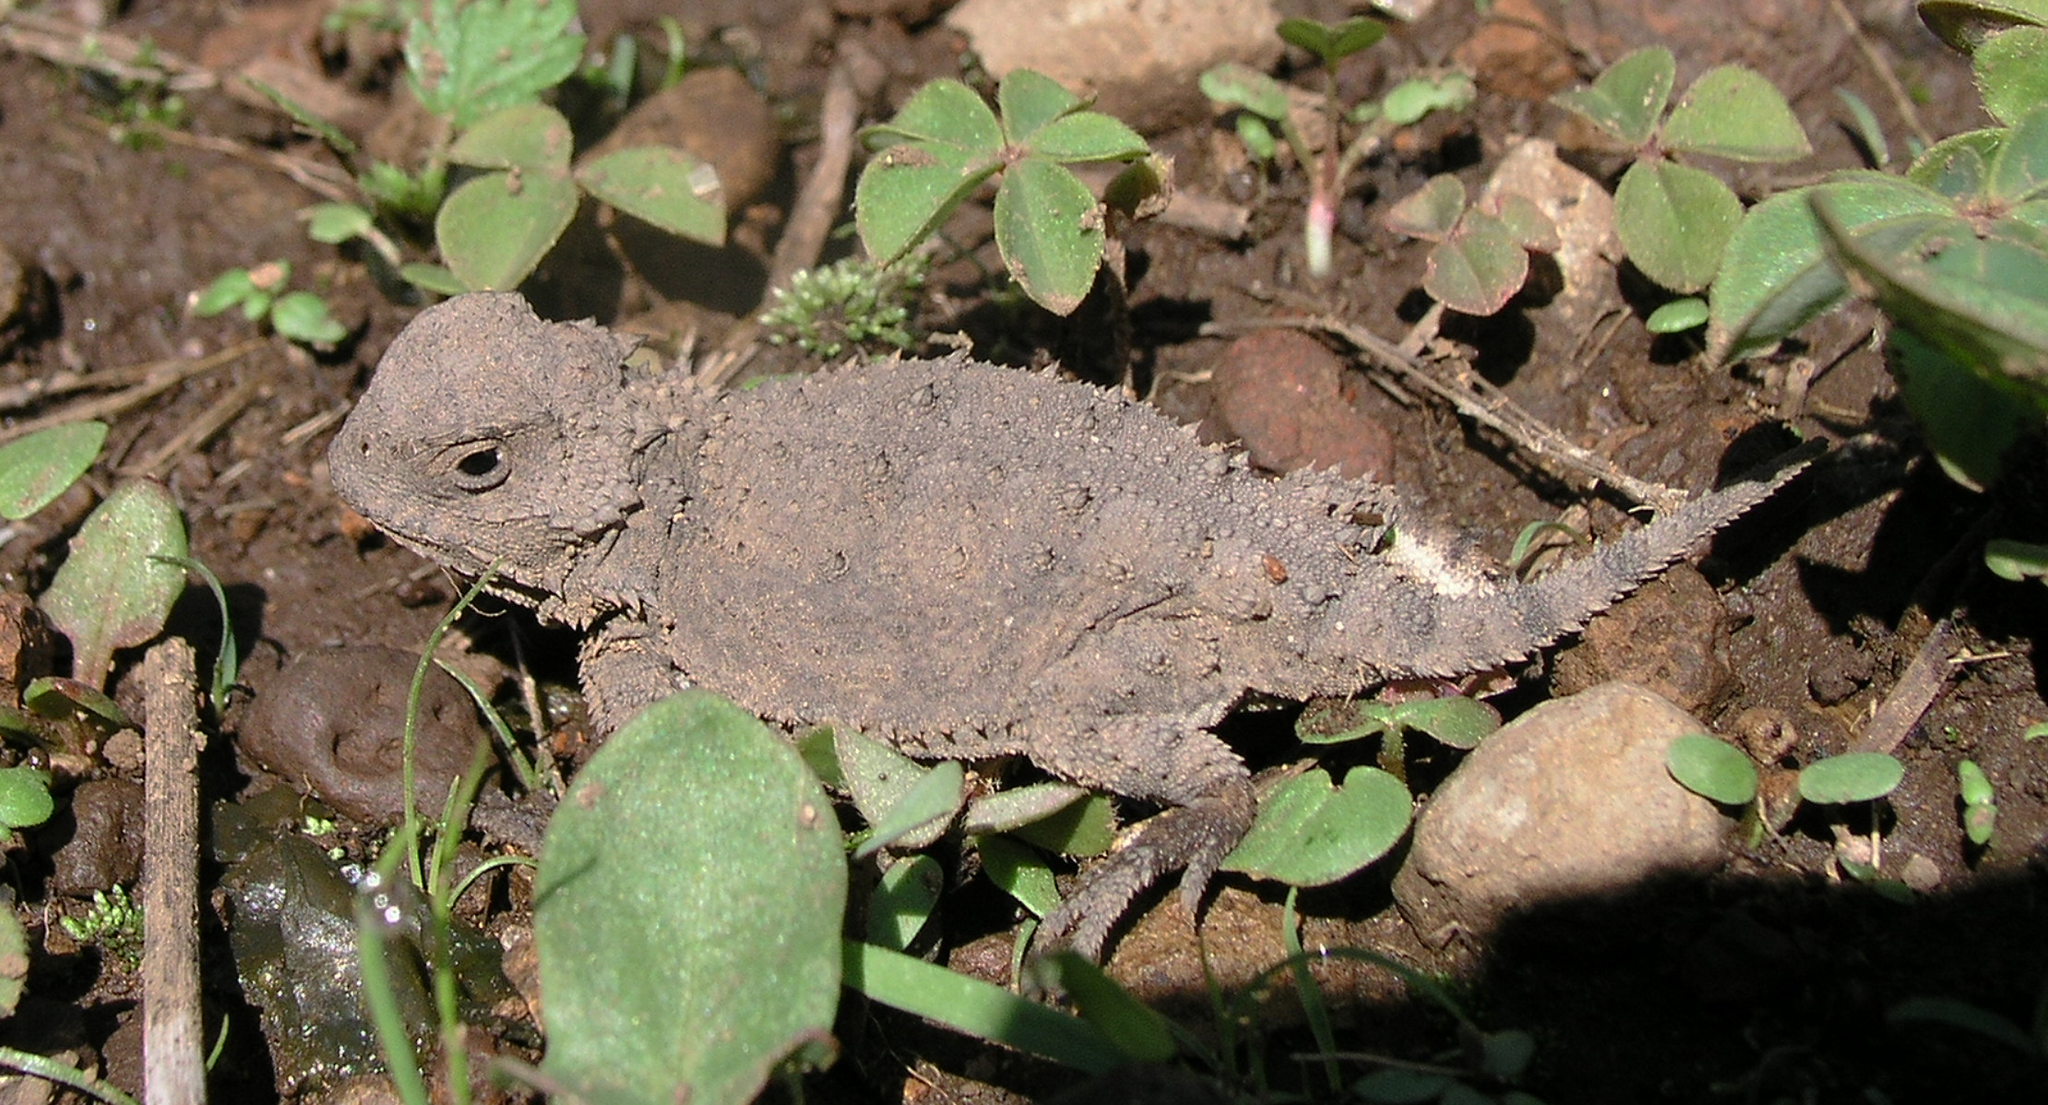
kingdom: Animalia
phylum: Chordata
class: Squamata
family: Phrynosomatidae
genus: Phrynosoma
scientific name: Phrynosoma orbiculare
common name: Mountain horned lizard
